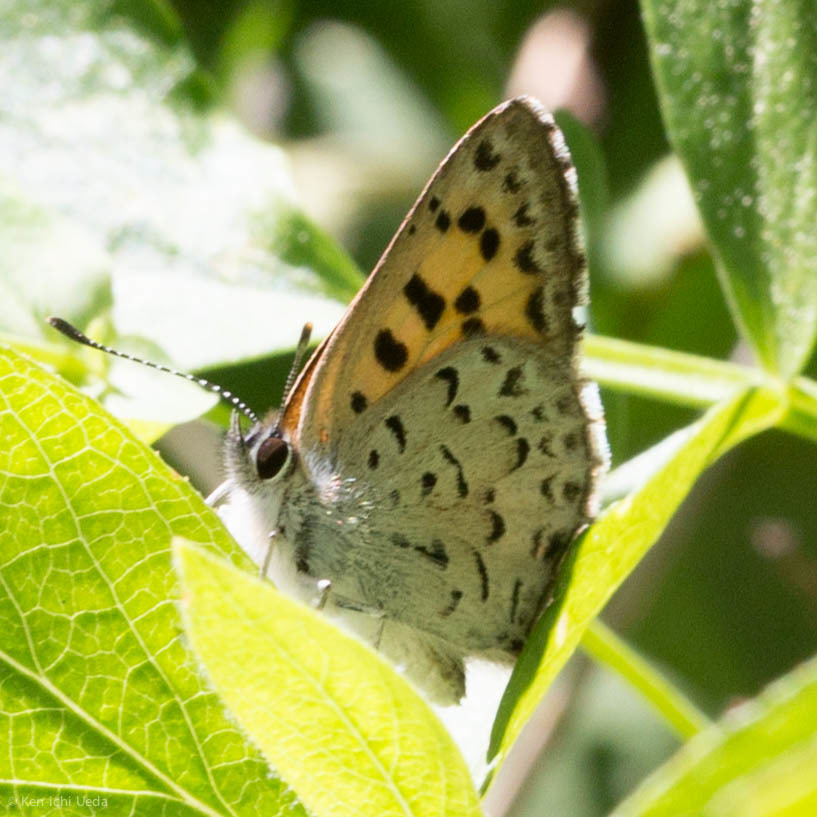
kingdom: Animalia
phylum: Arthropoda
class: Insecta
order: Lepidoptera
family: Lycaenidae
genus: Tharsalea
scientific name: Tharsalea mariposa
